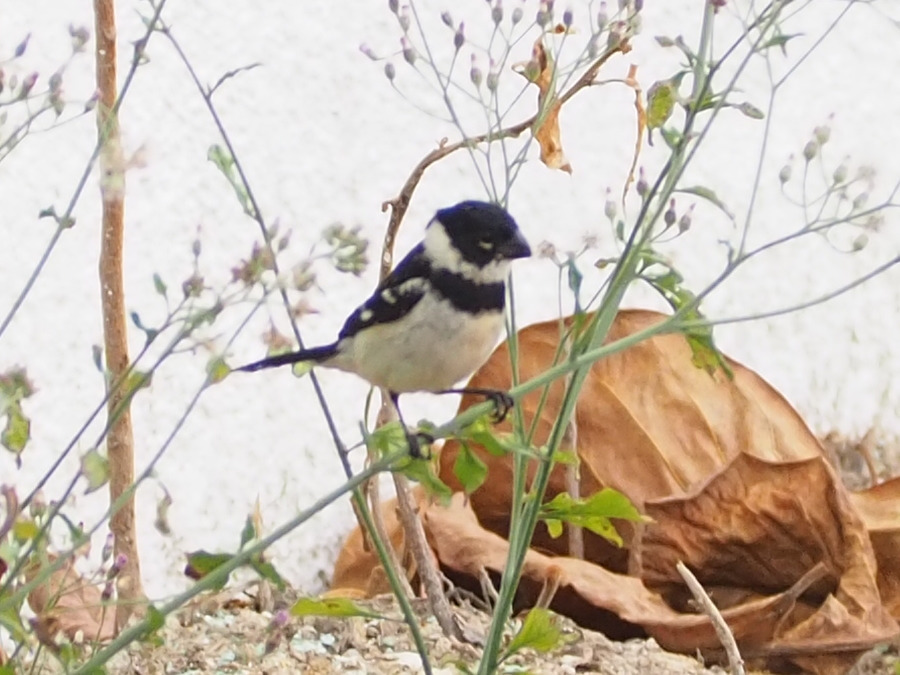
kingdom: Animalia
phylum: Chordata
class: Aves
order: Passeriformes
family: Thraupidae
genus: Sporophila
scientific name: Sporophila morelleti
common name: Morelet's seedeater
